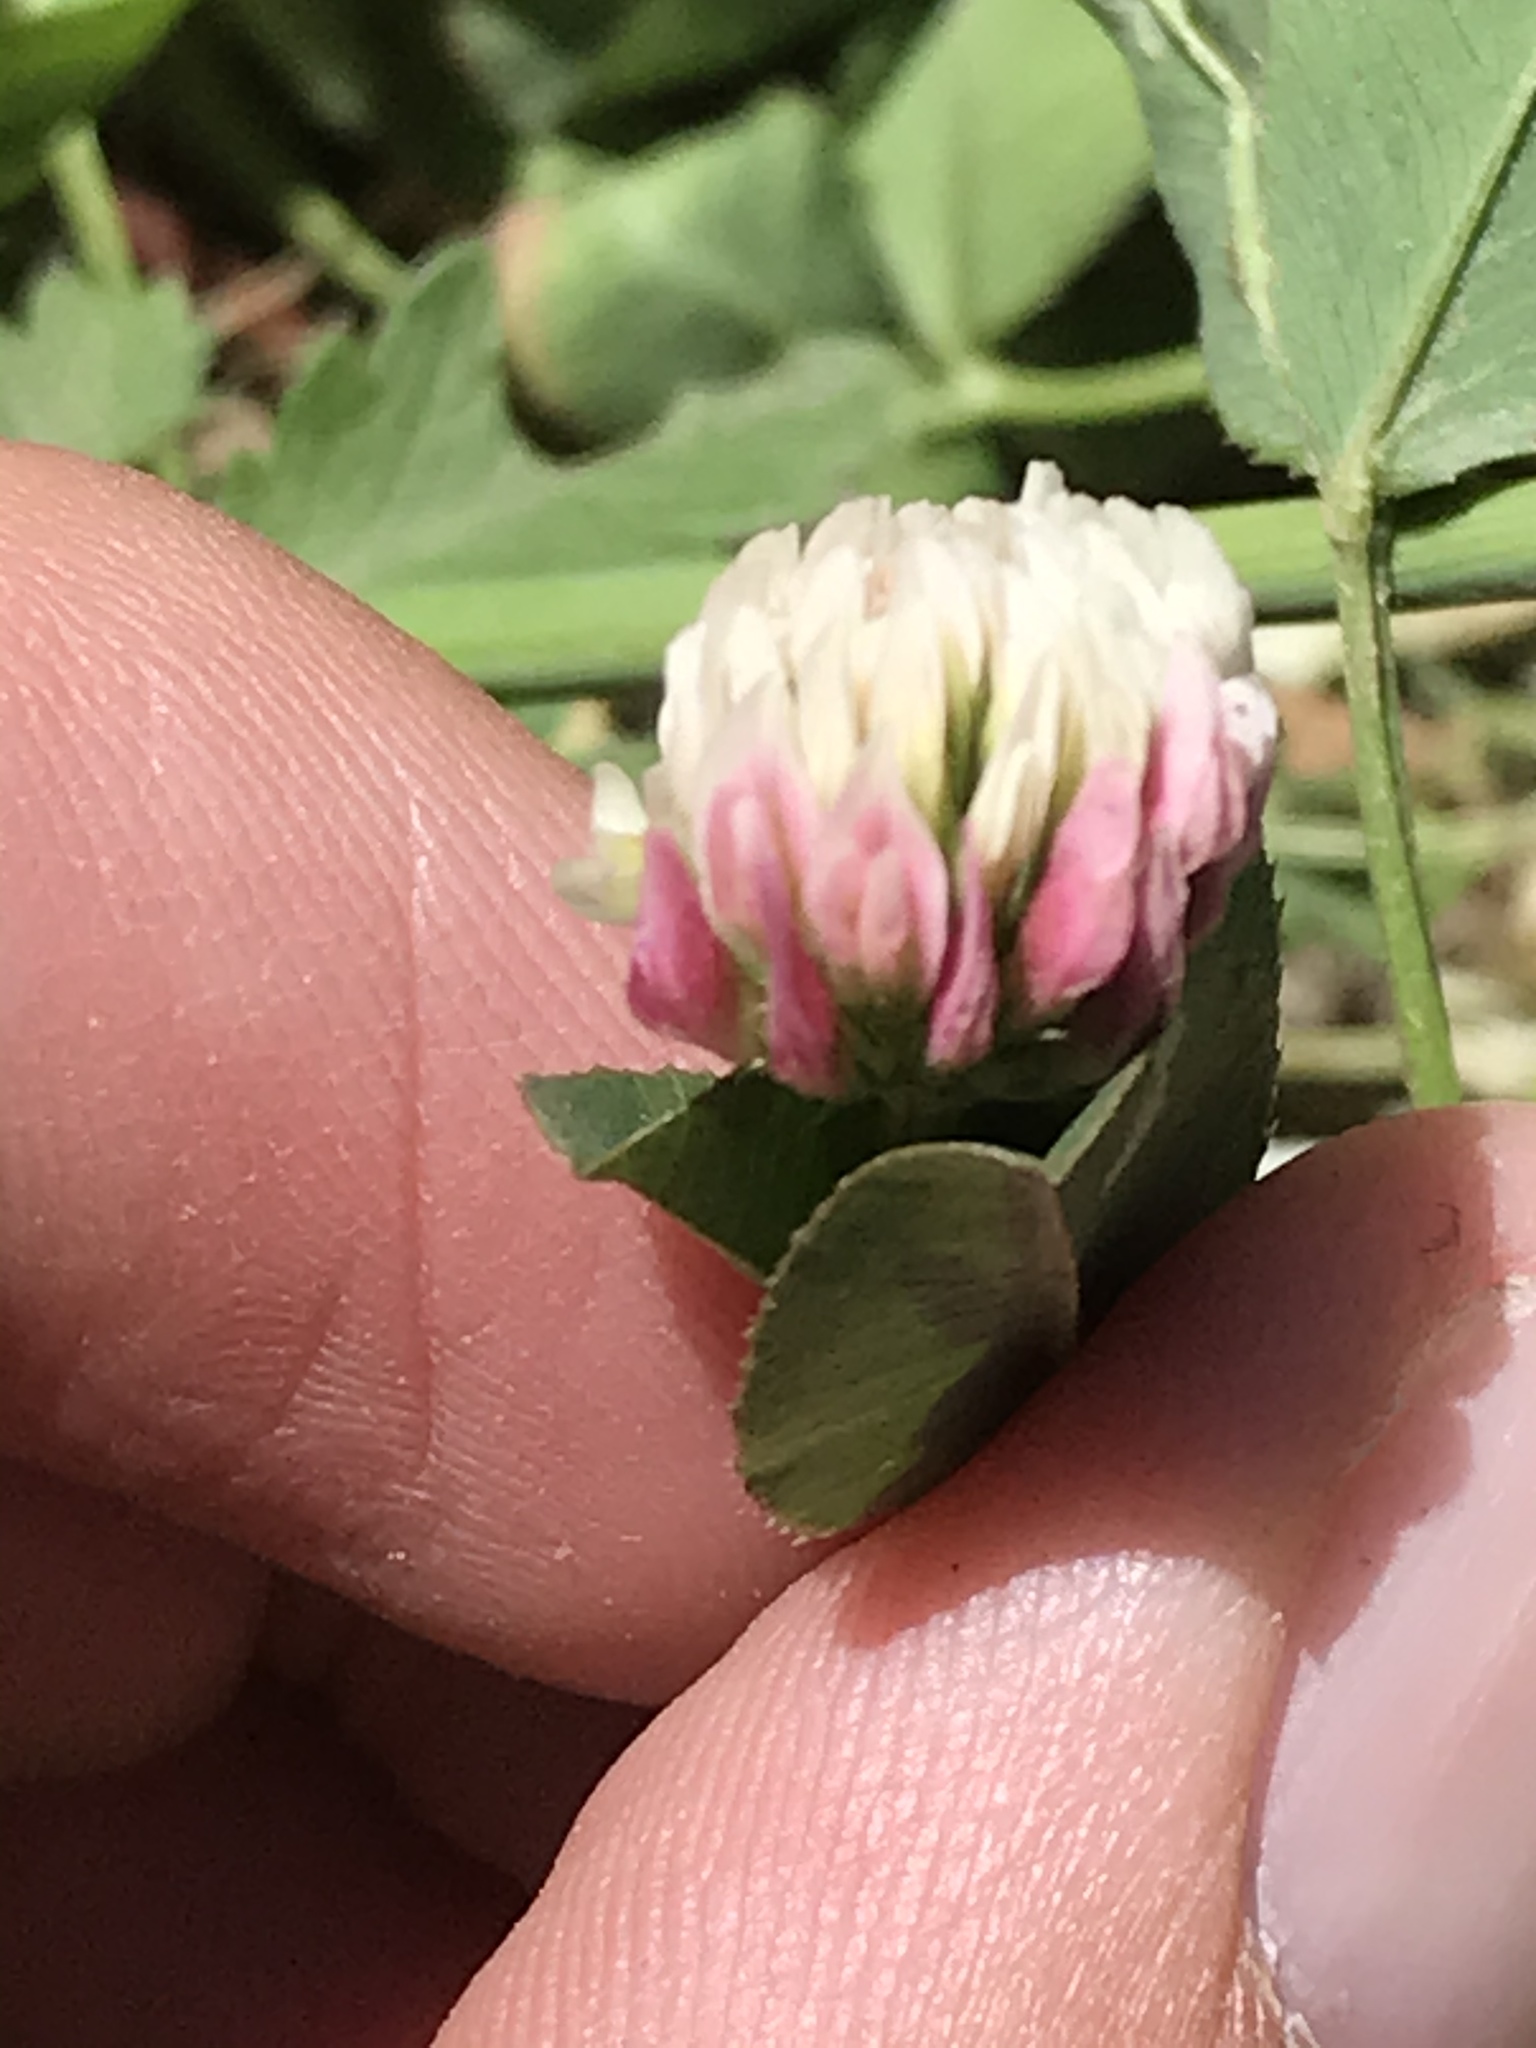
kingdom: Plantae
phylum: Tracheophyta
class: Magnoliopsida
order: Fabales
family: Fabaceae
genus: Trifolium
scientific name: Trifolium hybridum
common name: Alsike clover
